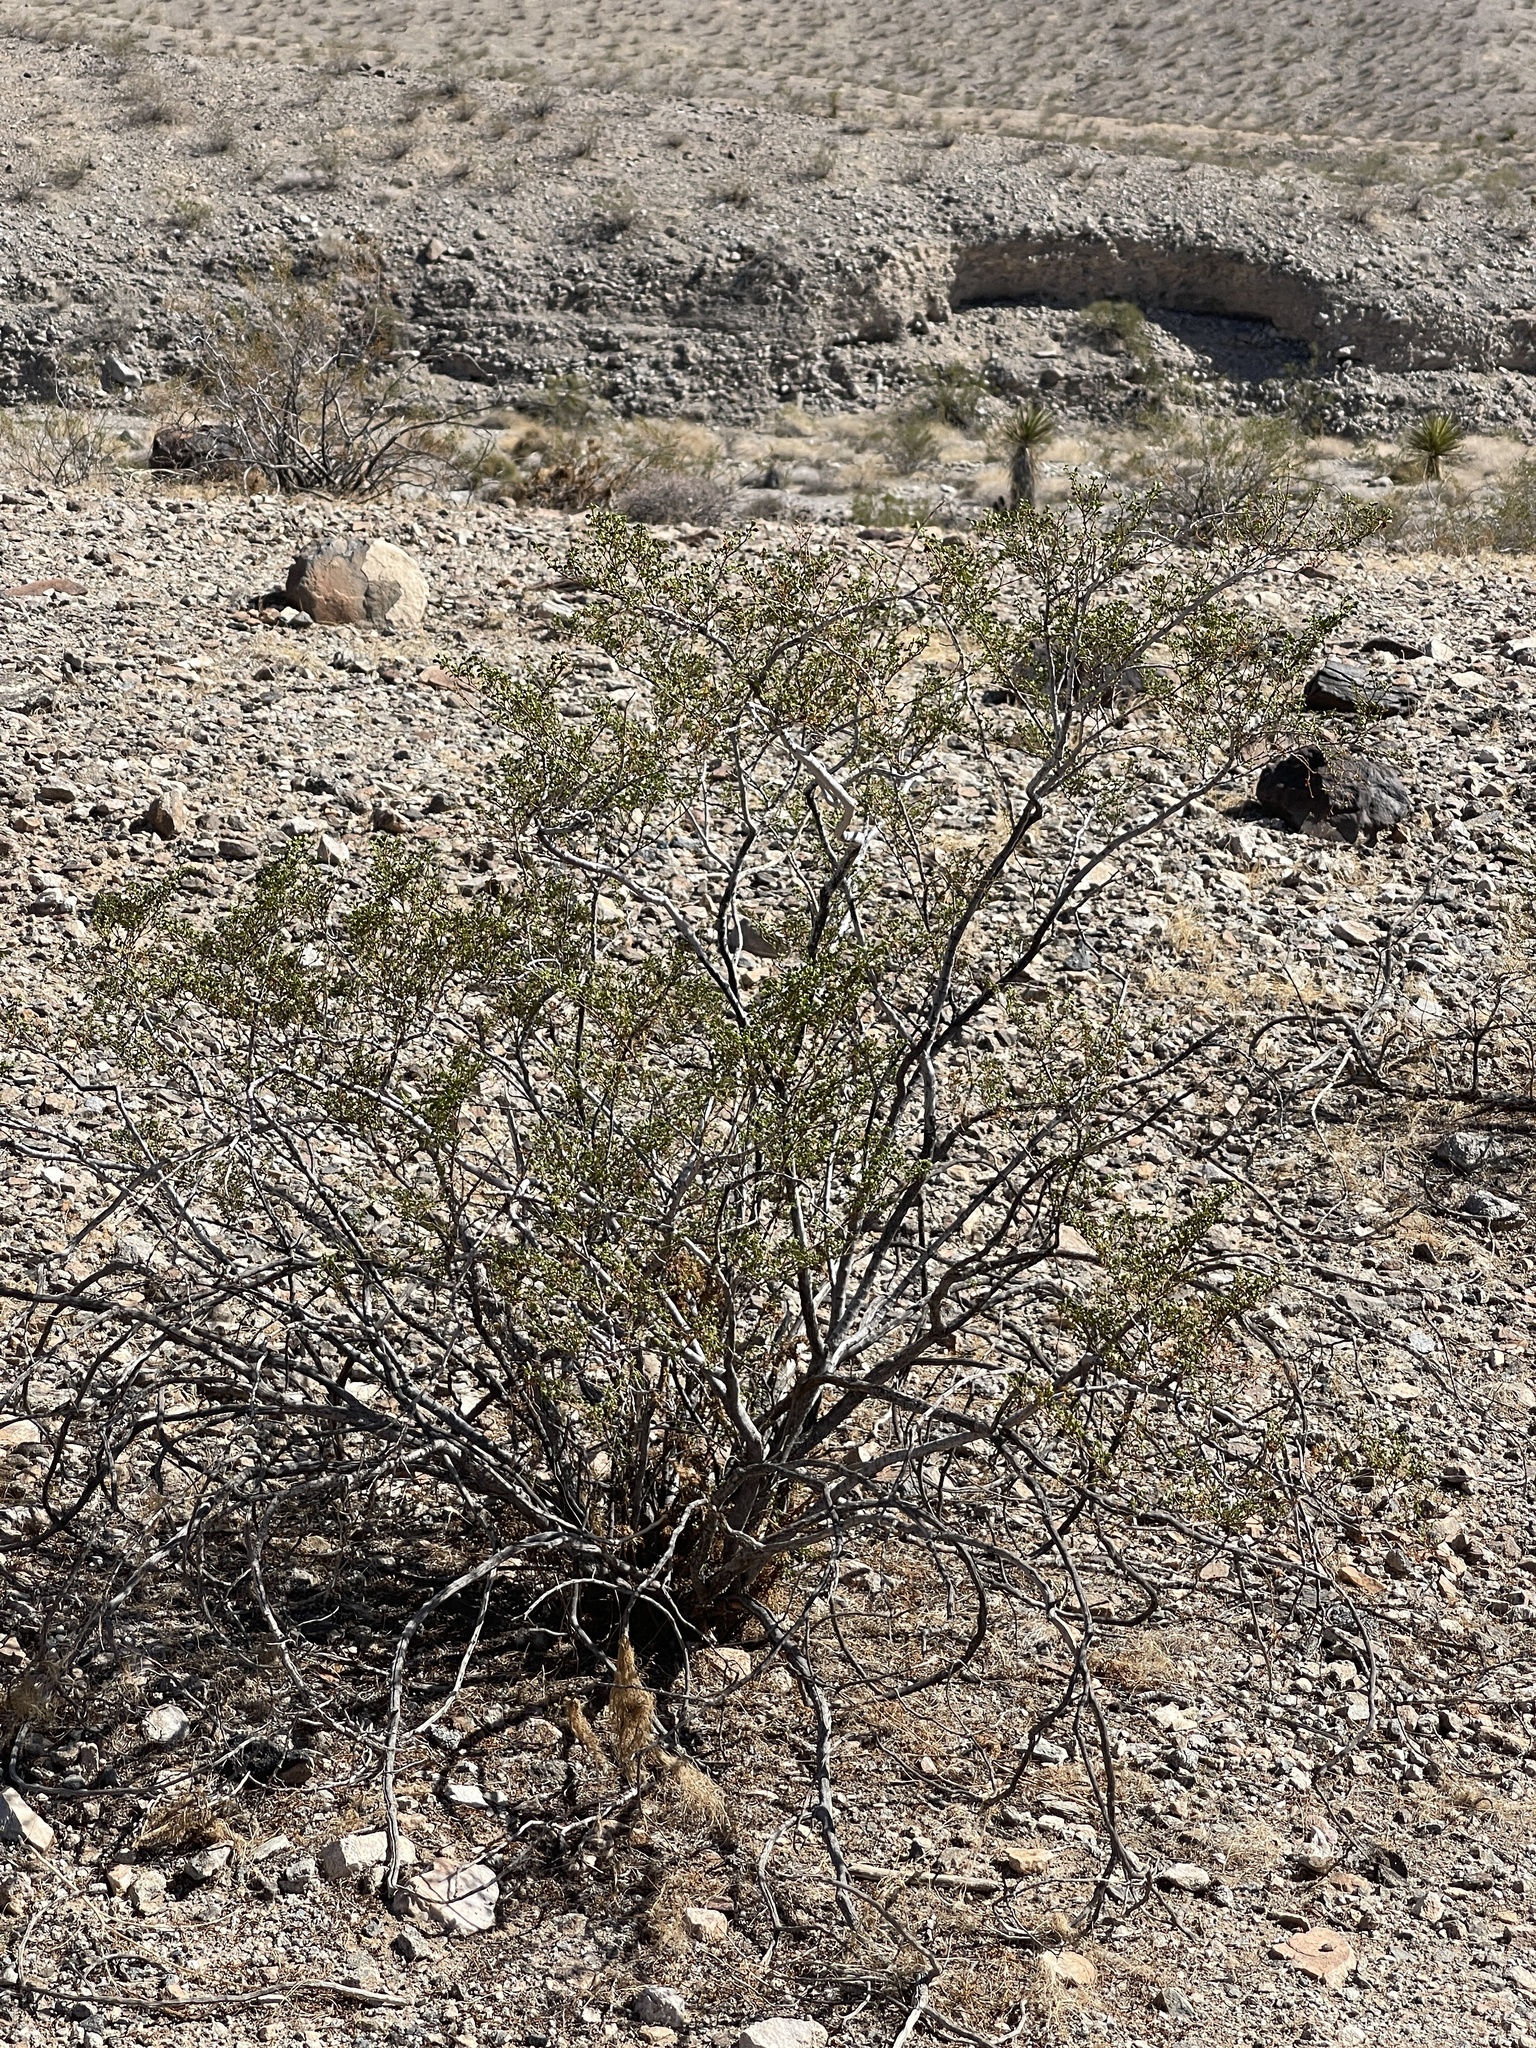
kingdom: Plantae
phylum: Tracheophyta
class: Magnoliopsida
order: Zygophyllales
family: Zygophyllaceae
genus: Larrea
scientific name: Larrea tridentata
